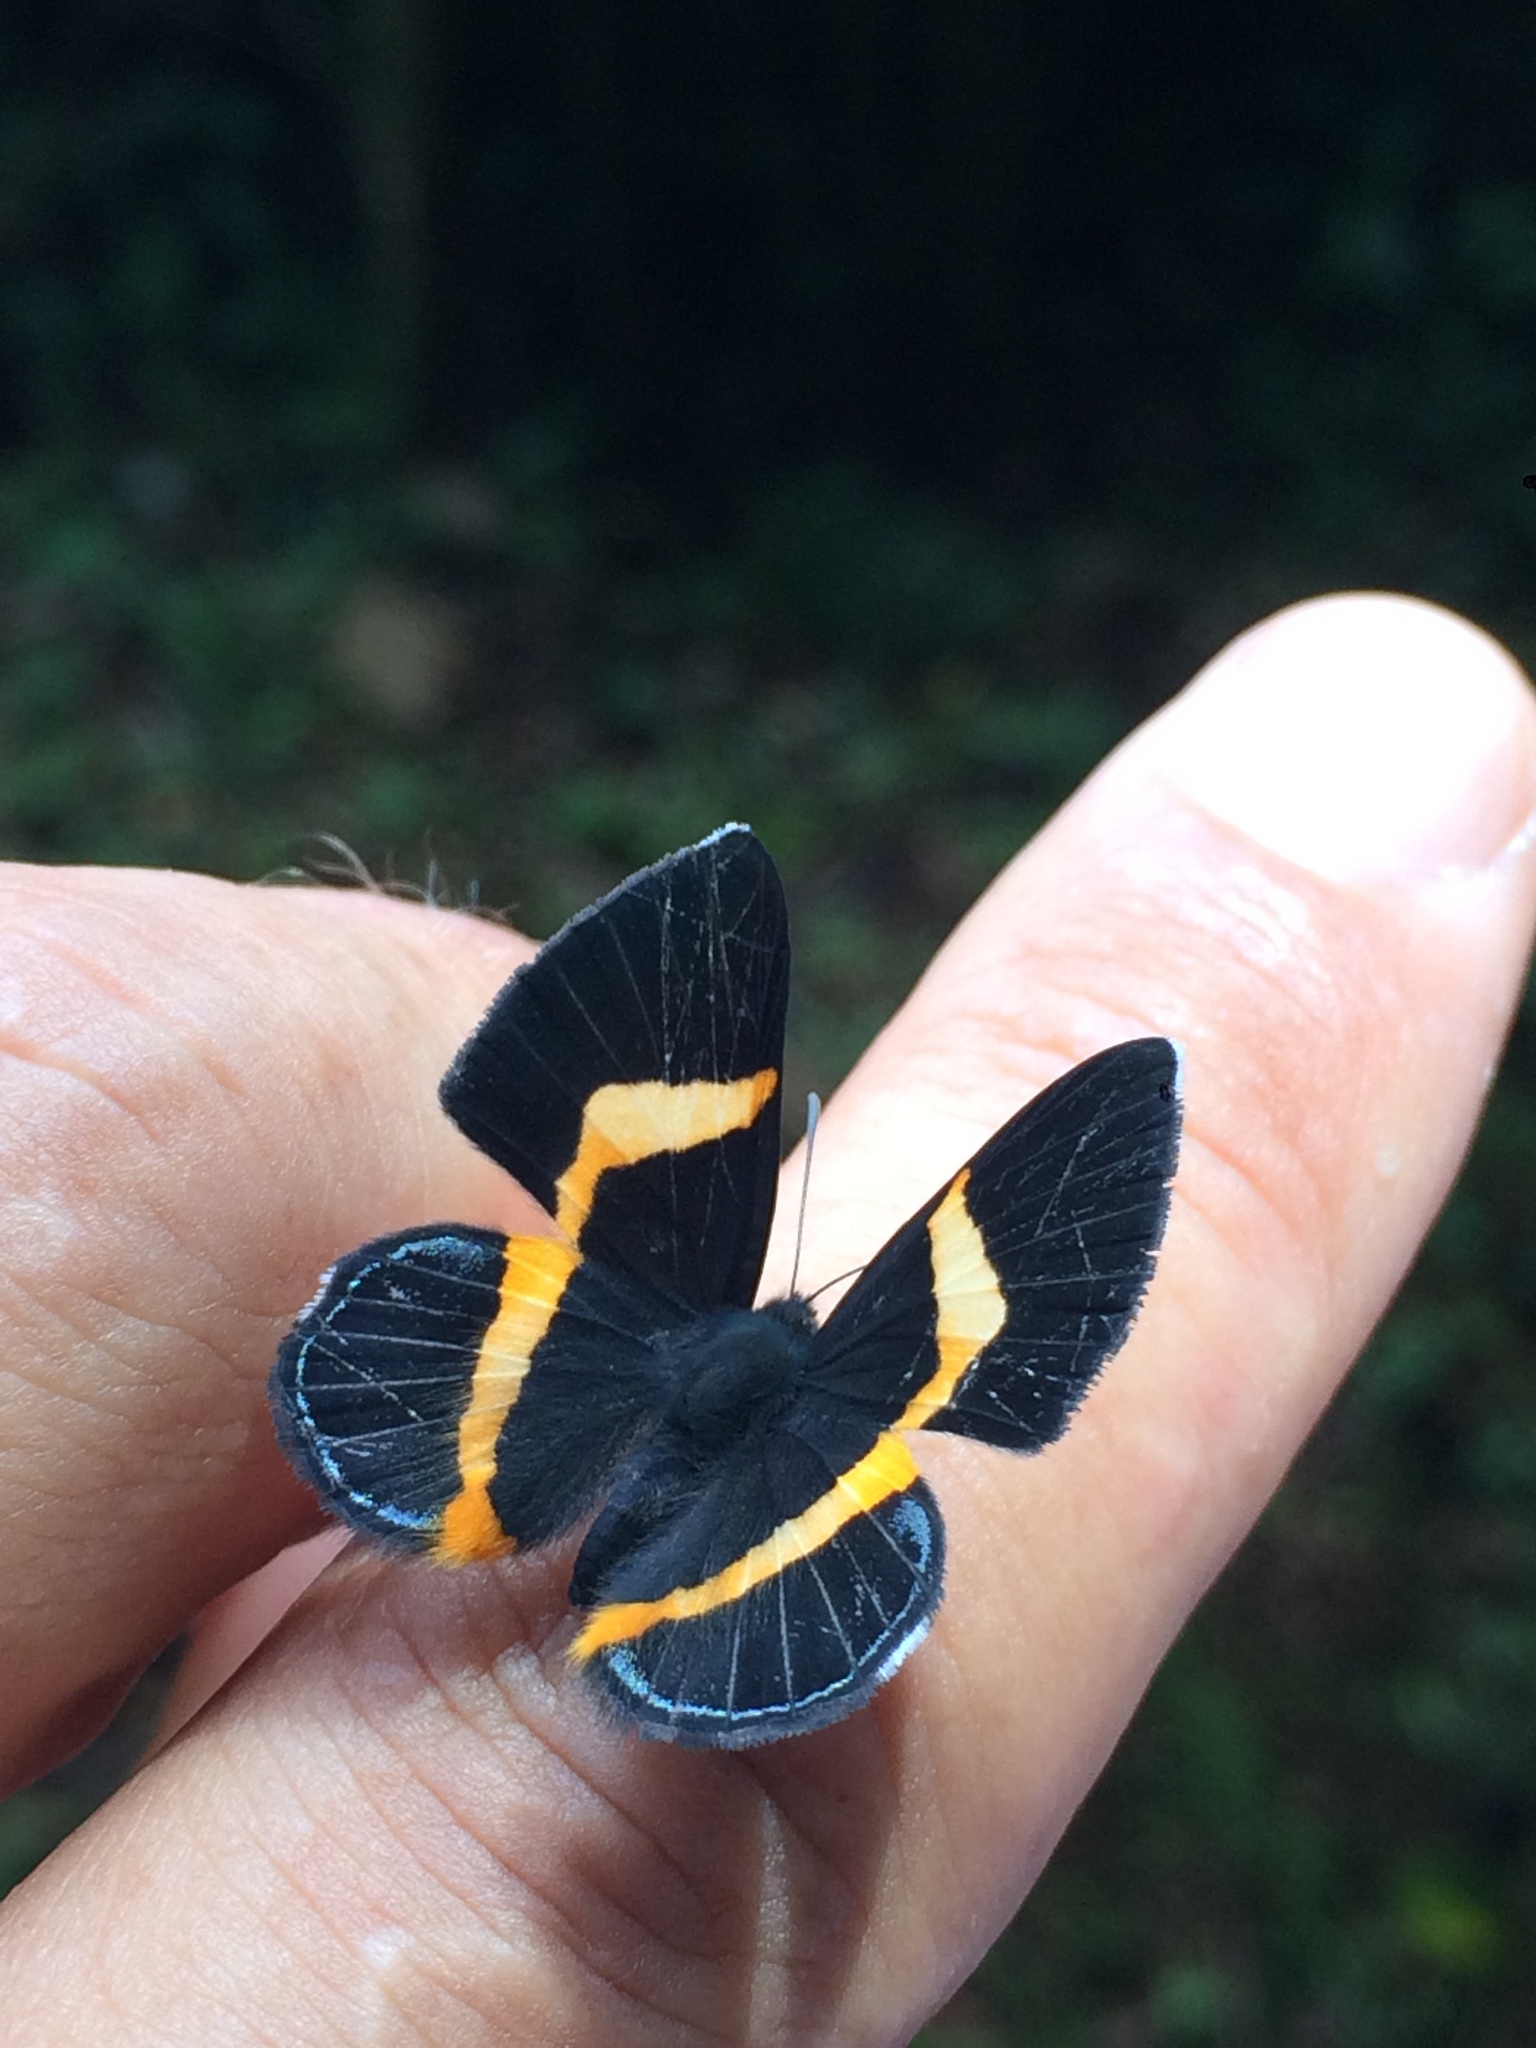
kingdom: Animalia
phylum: Arthropoda
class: Insecta
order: Lepidoptera
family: Riodinidae
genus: Notheme
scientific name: Notheme eumeus
